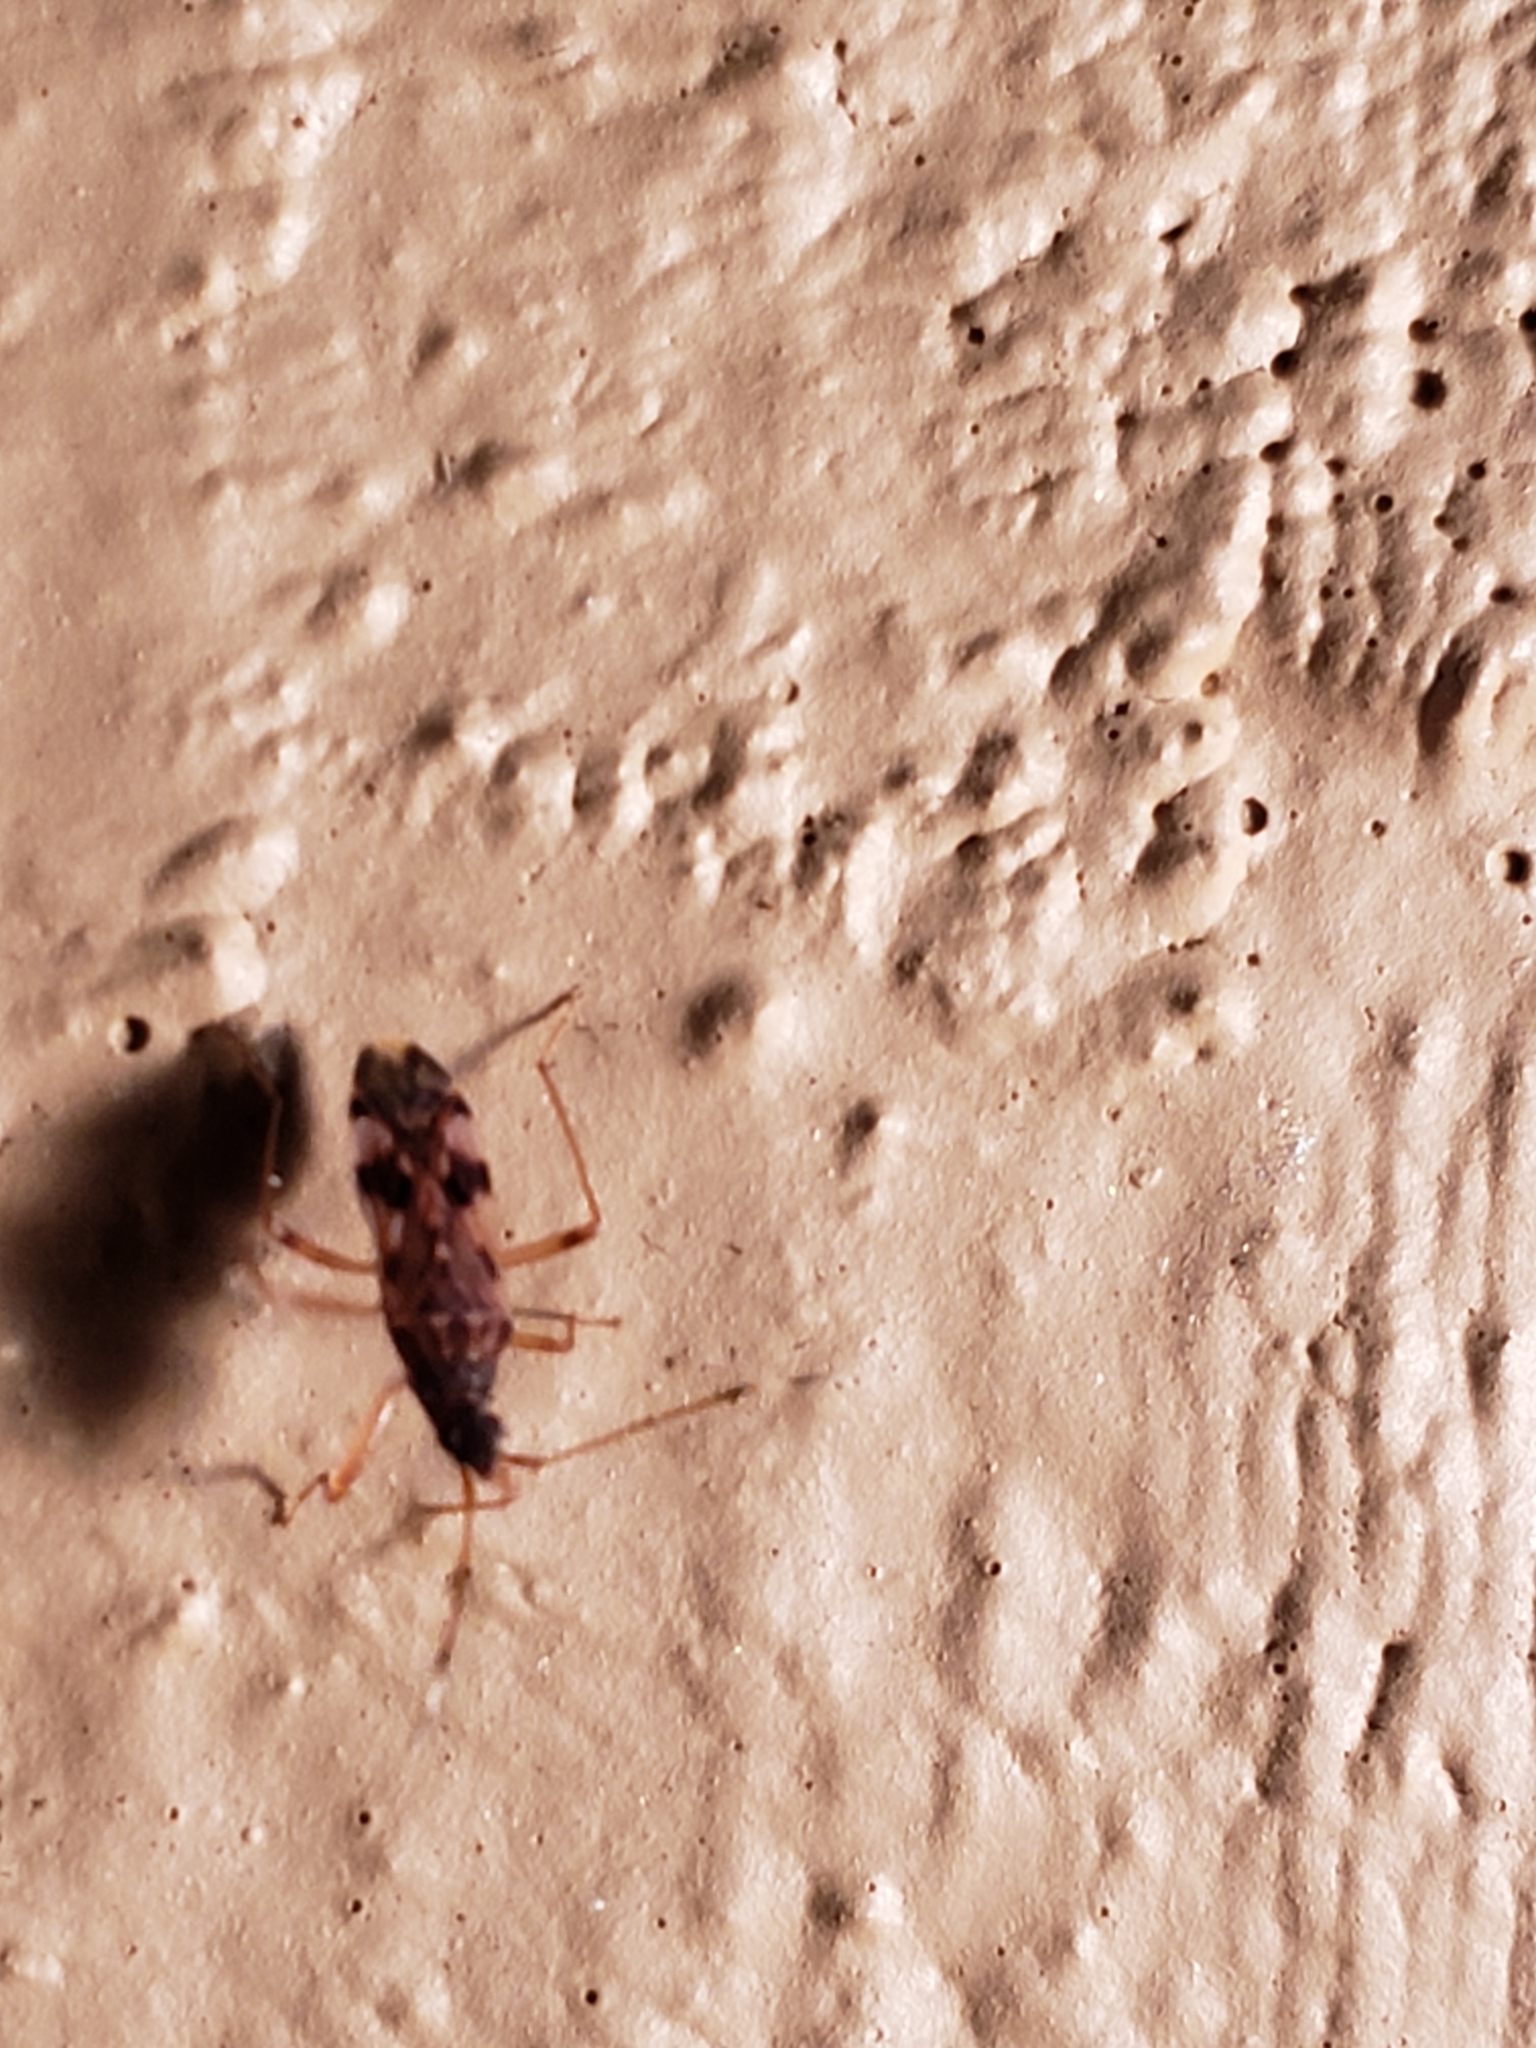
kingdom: Animalia
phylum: Arthropoda
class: Insecta
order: Hemiptera
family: Rhyparochromidae
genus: Ozophora
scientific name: Ozophora picturata
